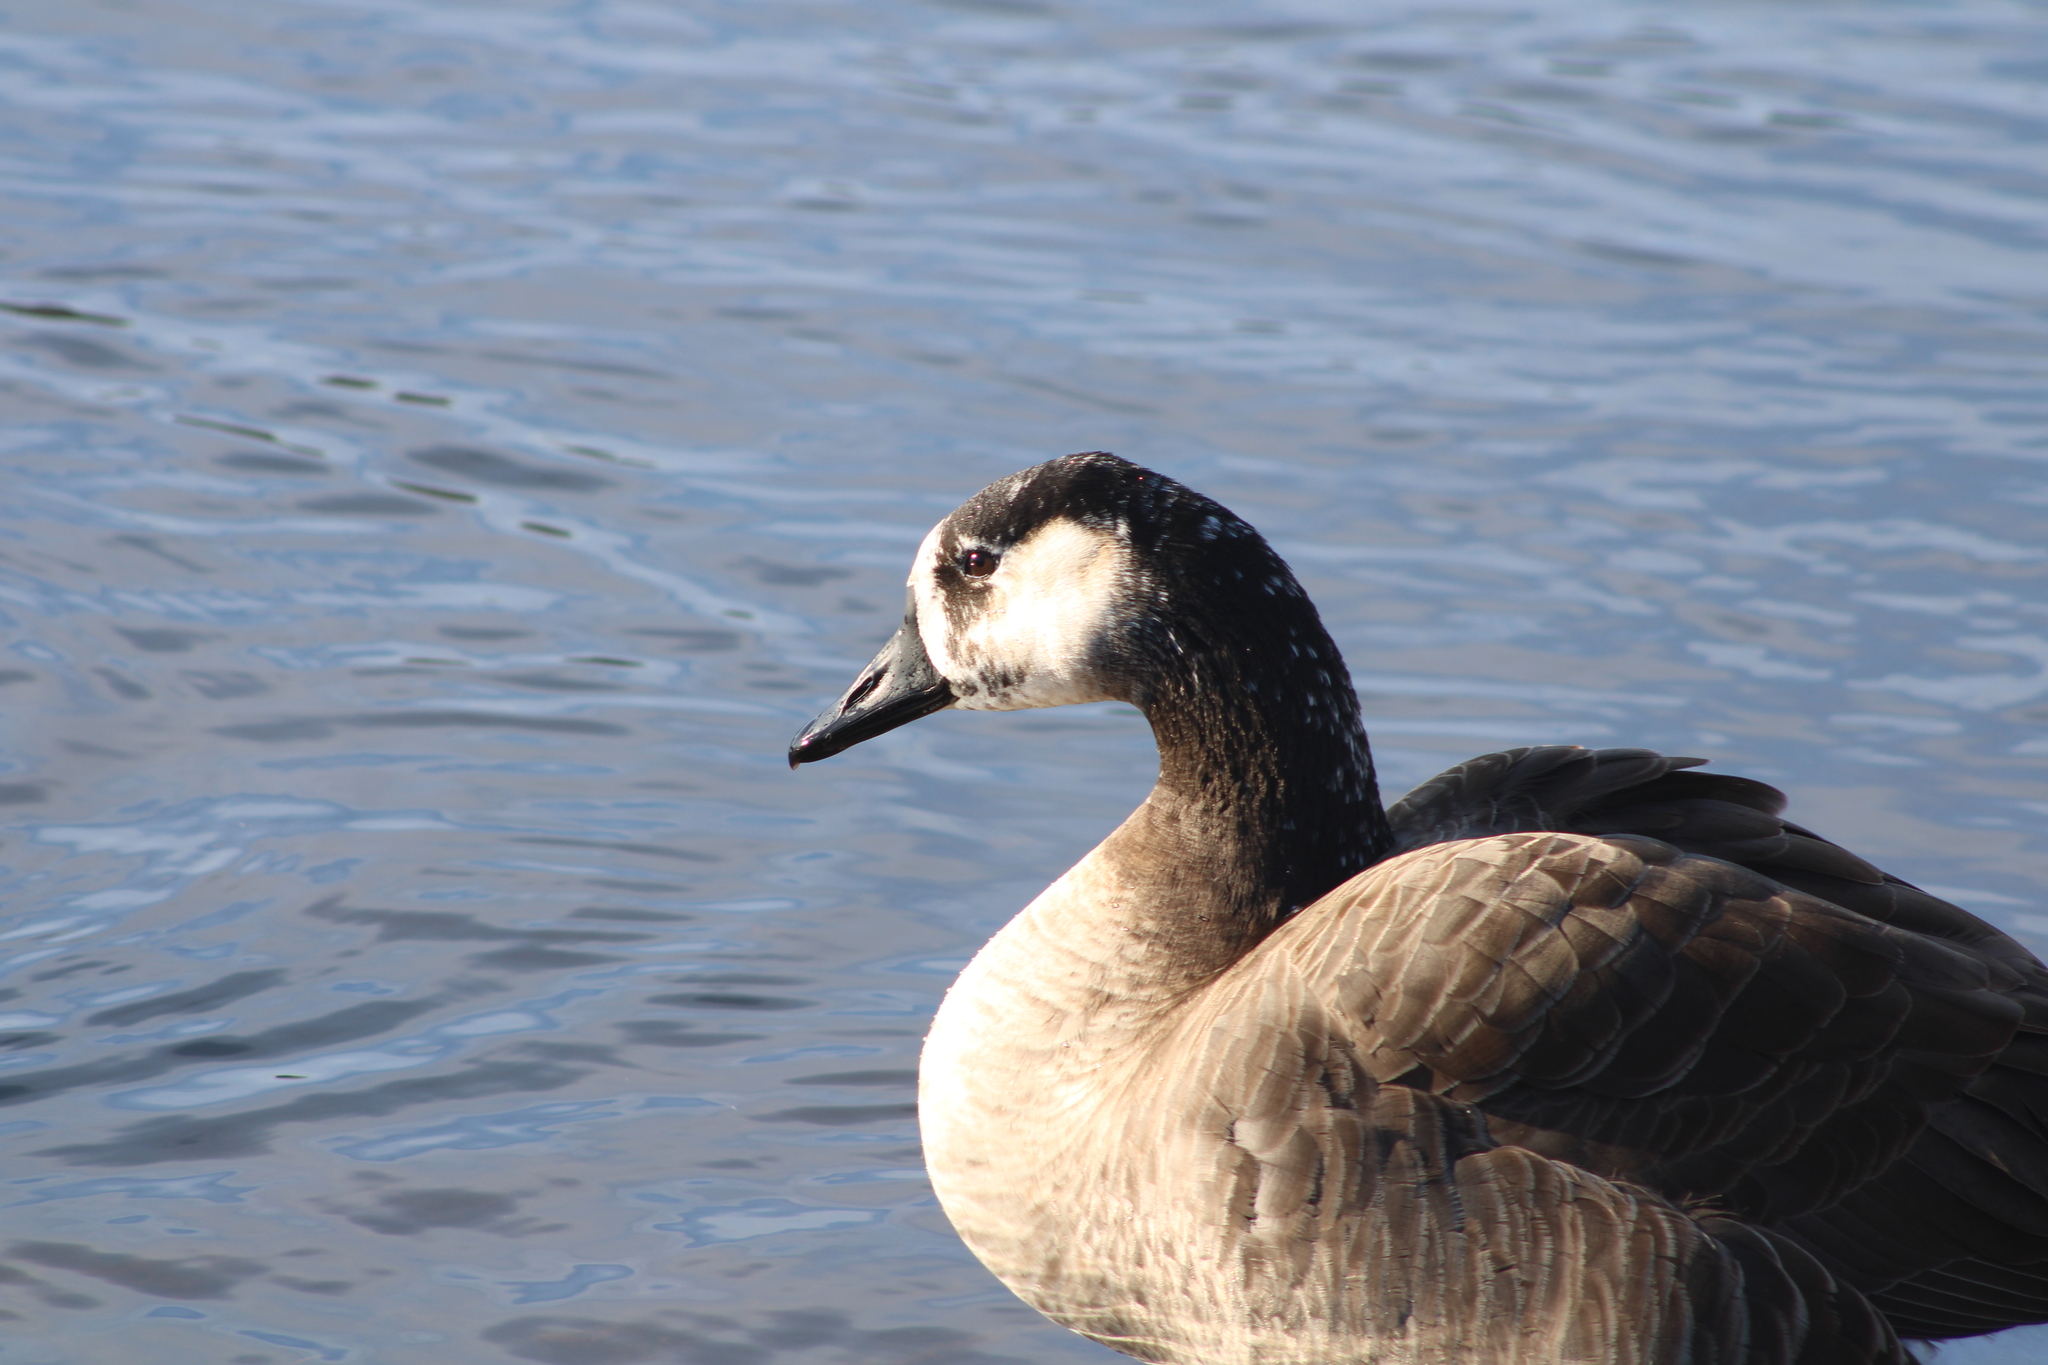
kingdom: Animalia
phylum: Chordata
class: Aves
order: Anseriformes
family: Anatidae
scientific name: Anatidae
